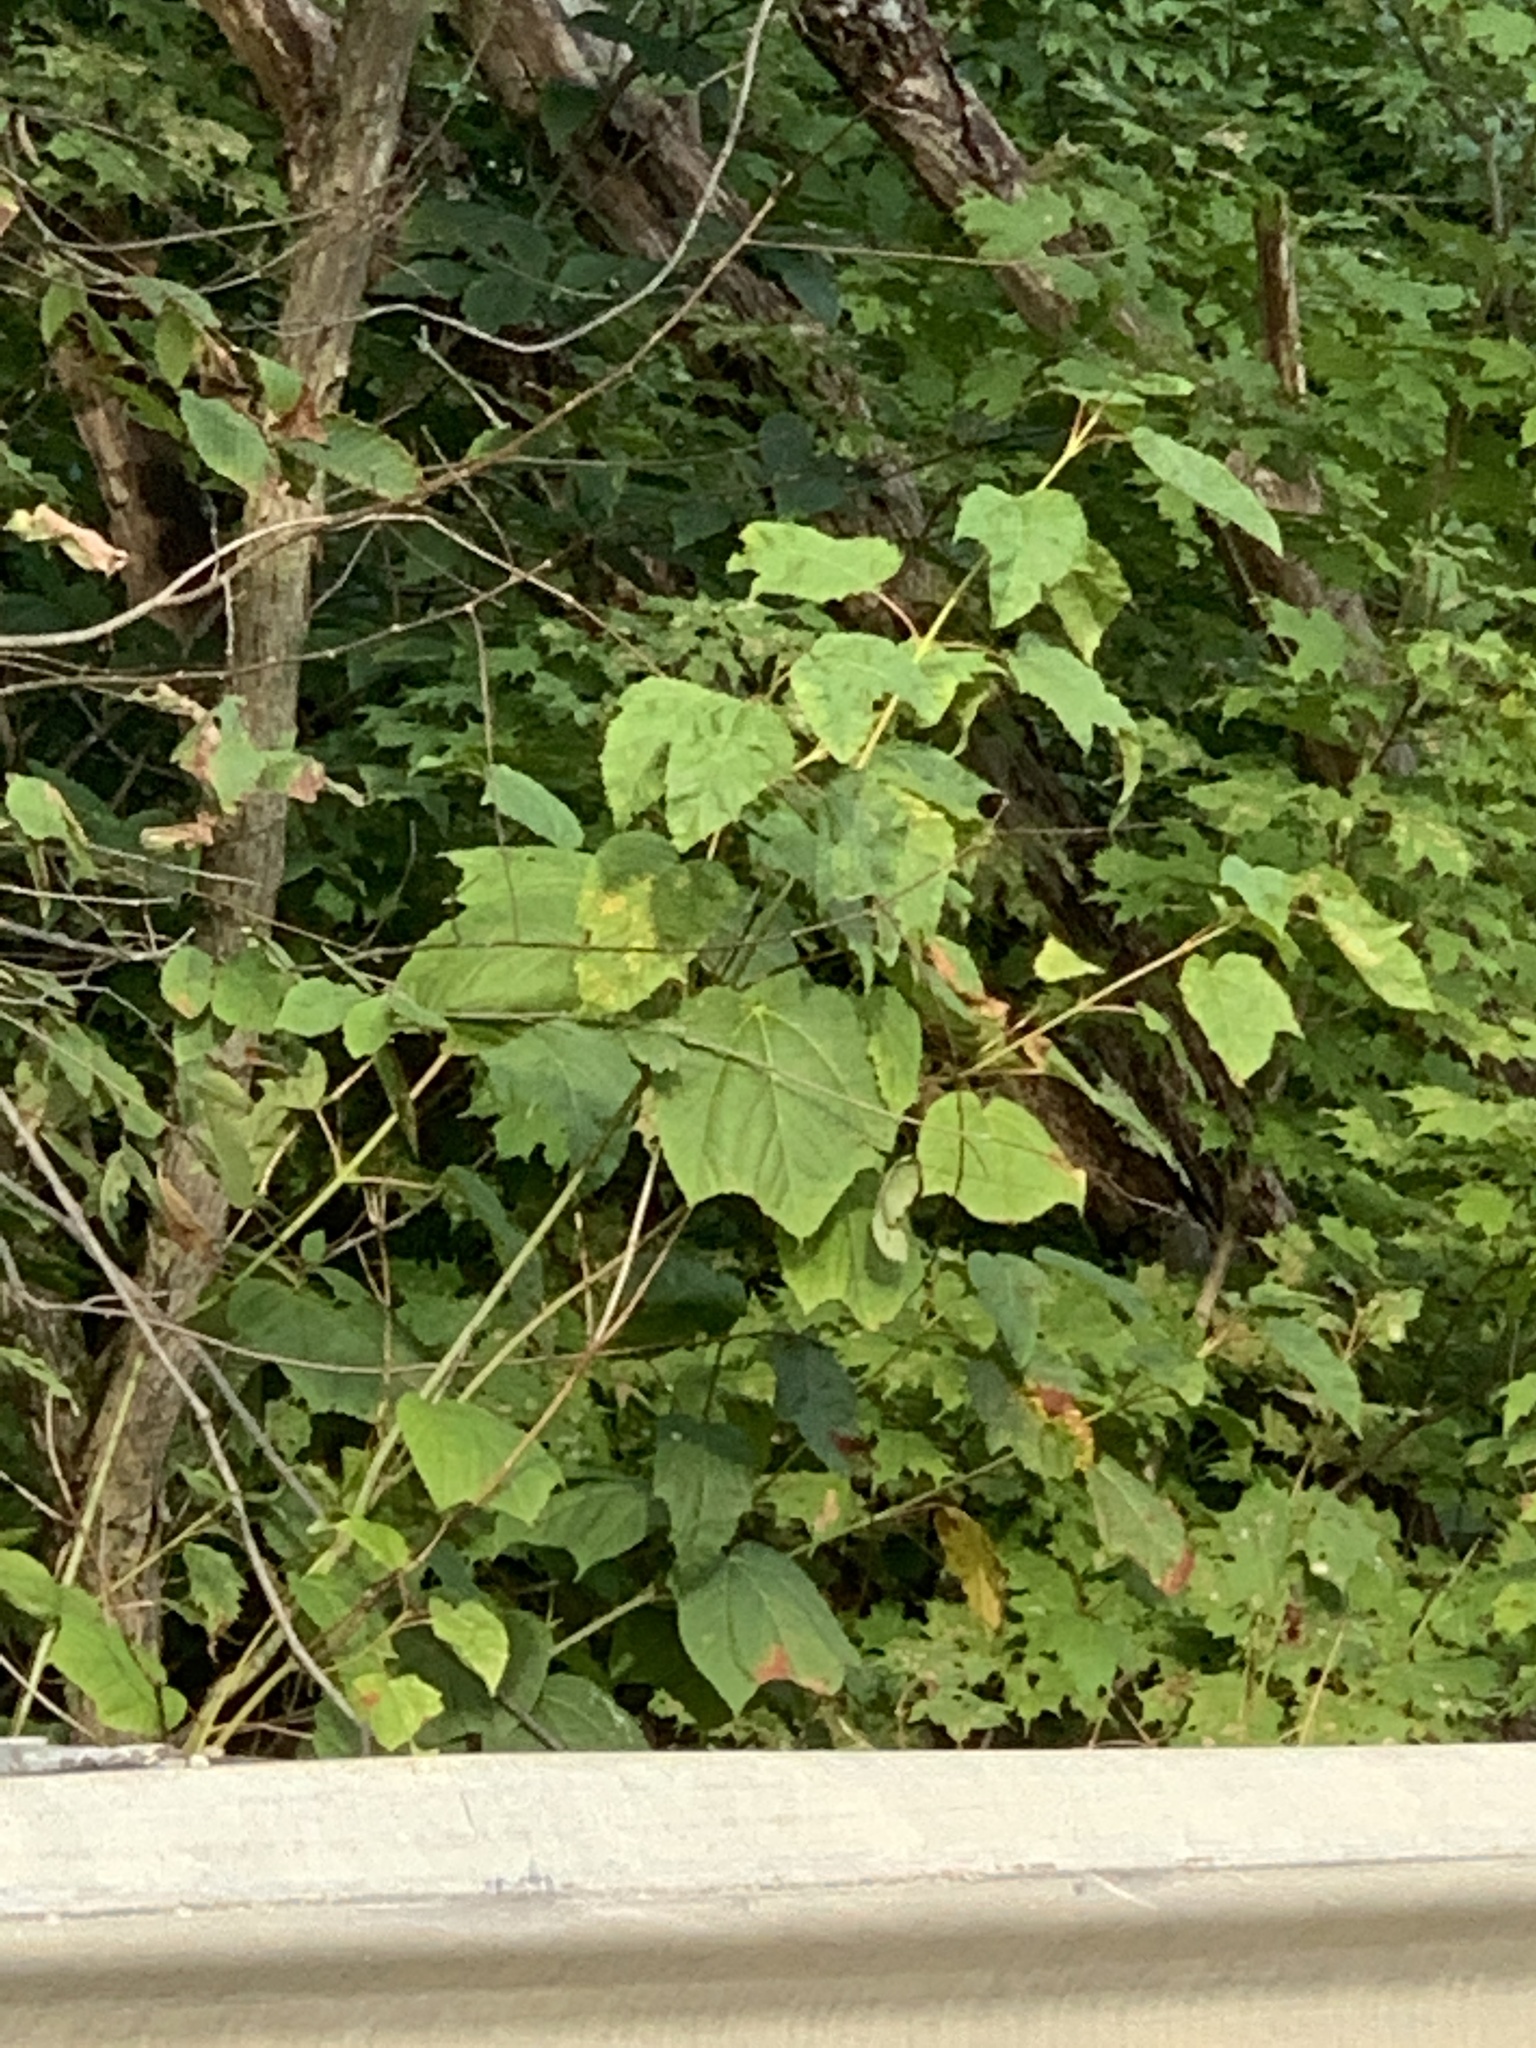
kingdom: Plantae
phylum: Tracheophyta
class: Magnoliopsida
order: Sapindales
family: Sapindaceae
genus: Acer
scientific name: Acer pensylvanicum
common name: Moosewood
